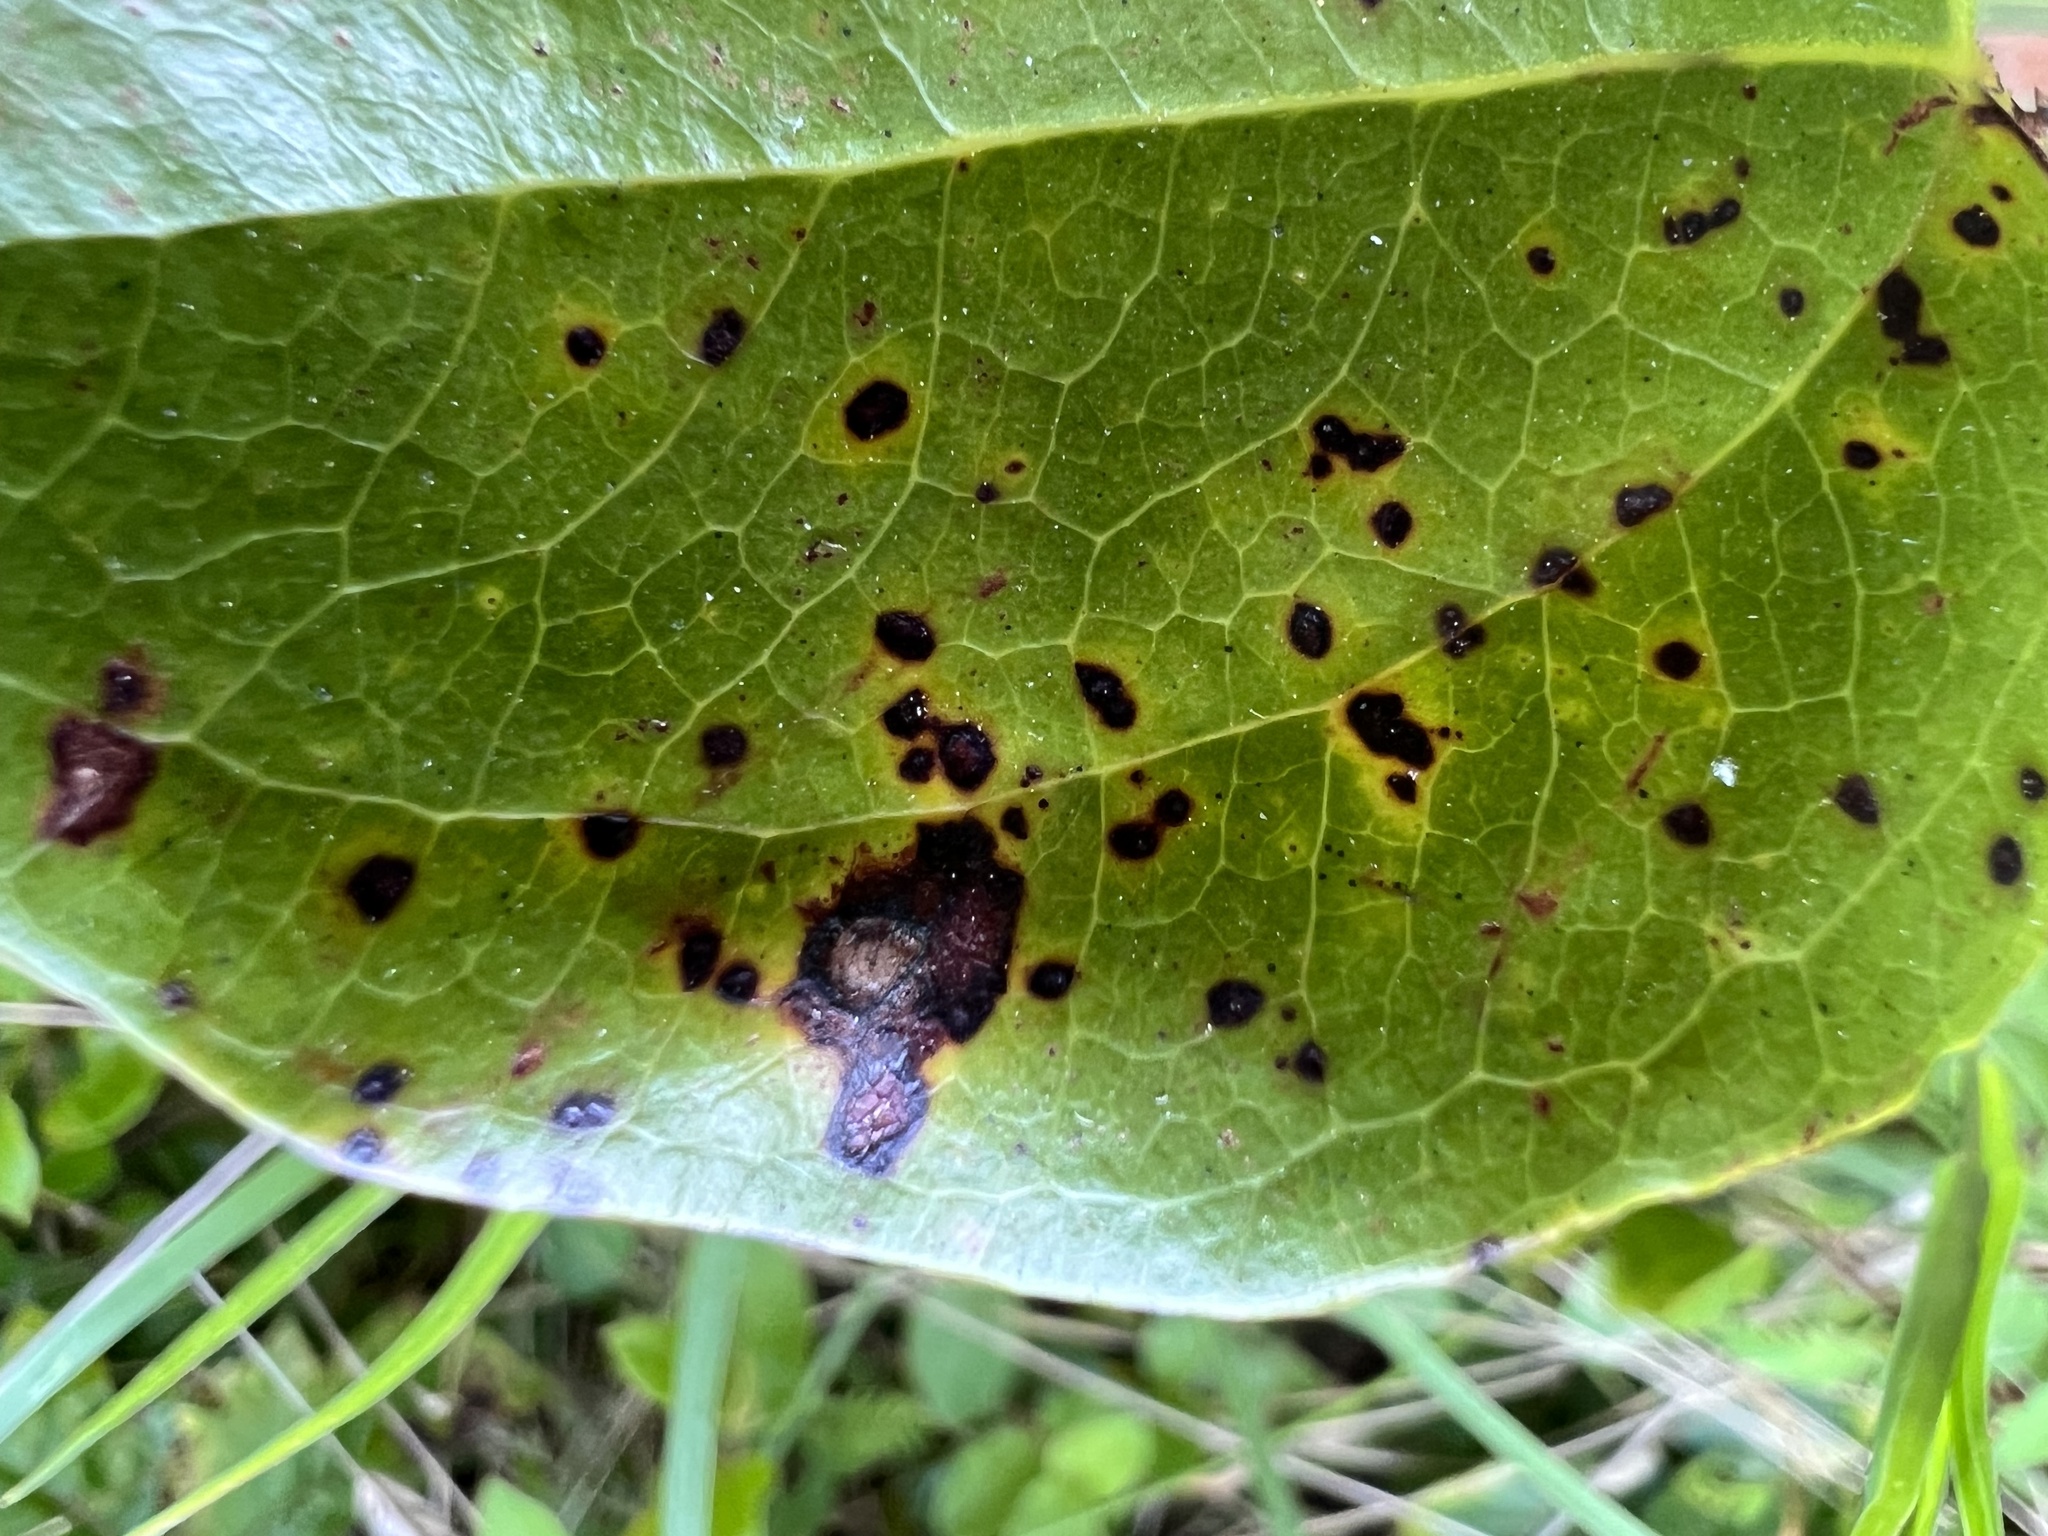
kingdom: Fungi
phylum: Ascomycota
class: Dothideomycetes
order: Mycosphaerellales
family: Mycosphaerellaceae
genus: Pseudocercospora
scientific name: Pseudocercospora smilacicola
